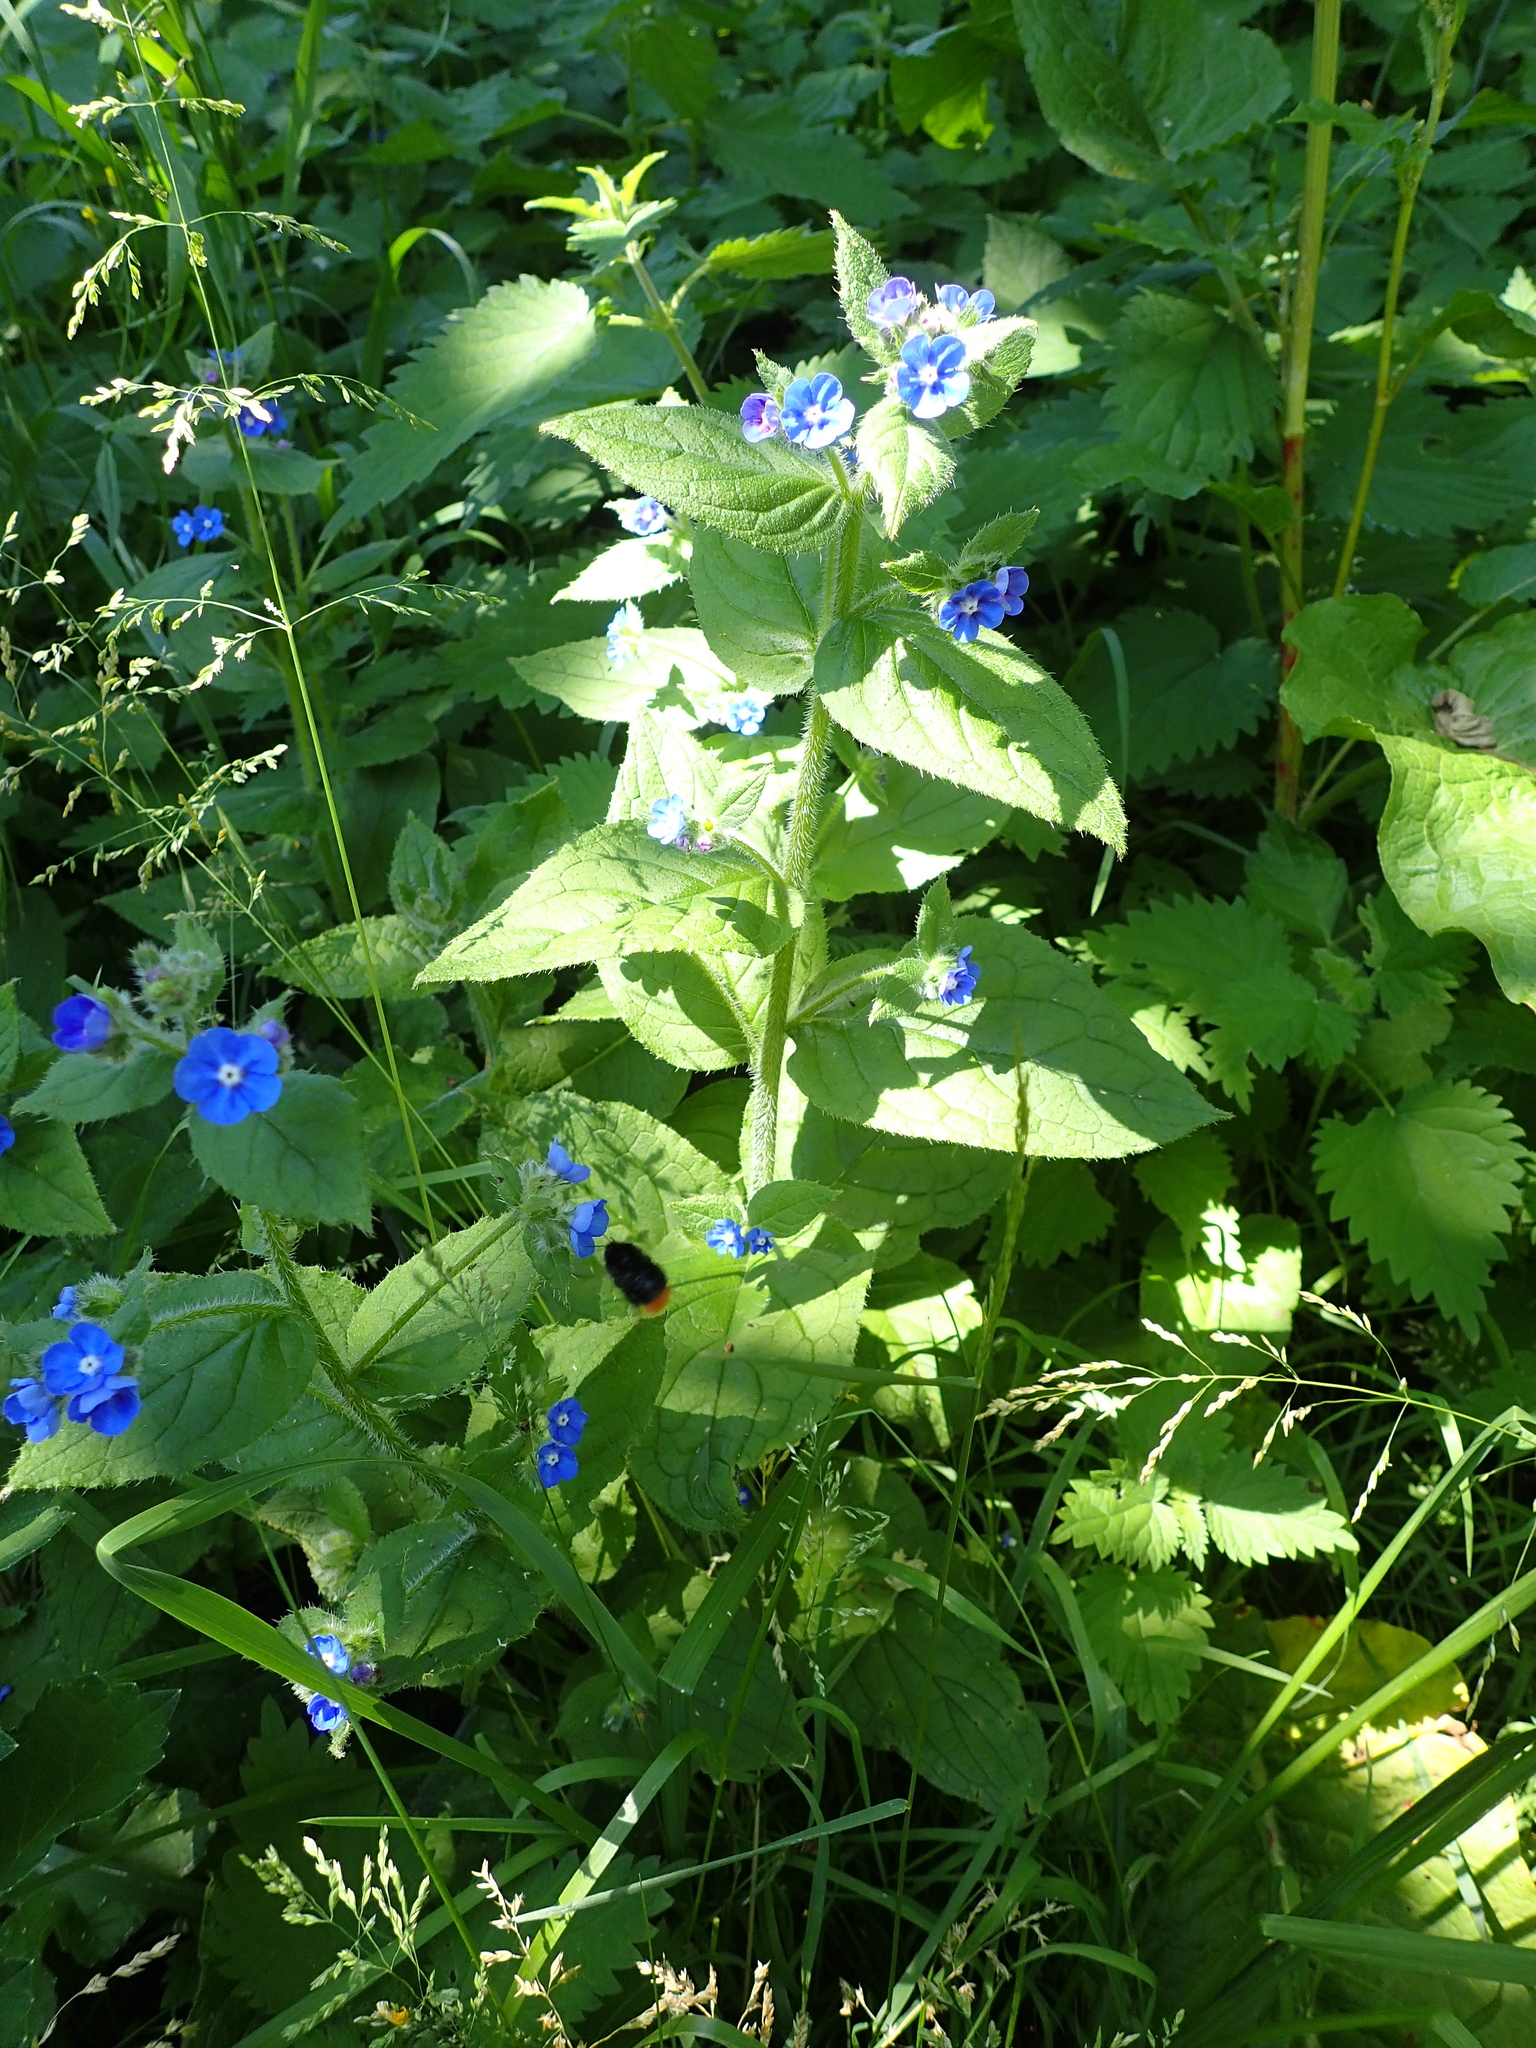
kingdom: Plantae
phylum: Tracheophyta
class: Magnoliopsida
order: Boraginales
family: Boraginaceae
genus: Pentaglottis
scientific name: Pentaglottis sempervirens
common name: Green alkanet
